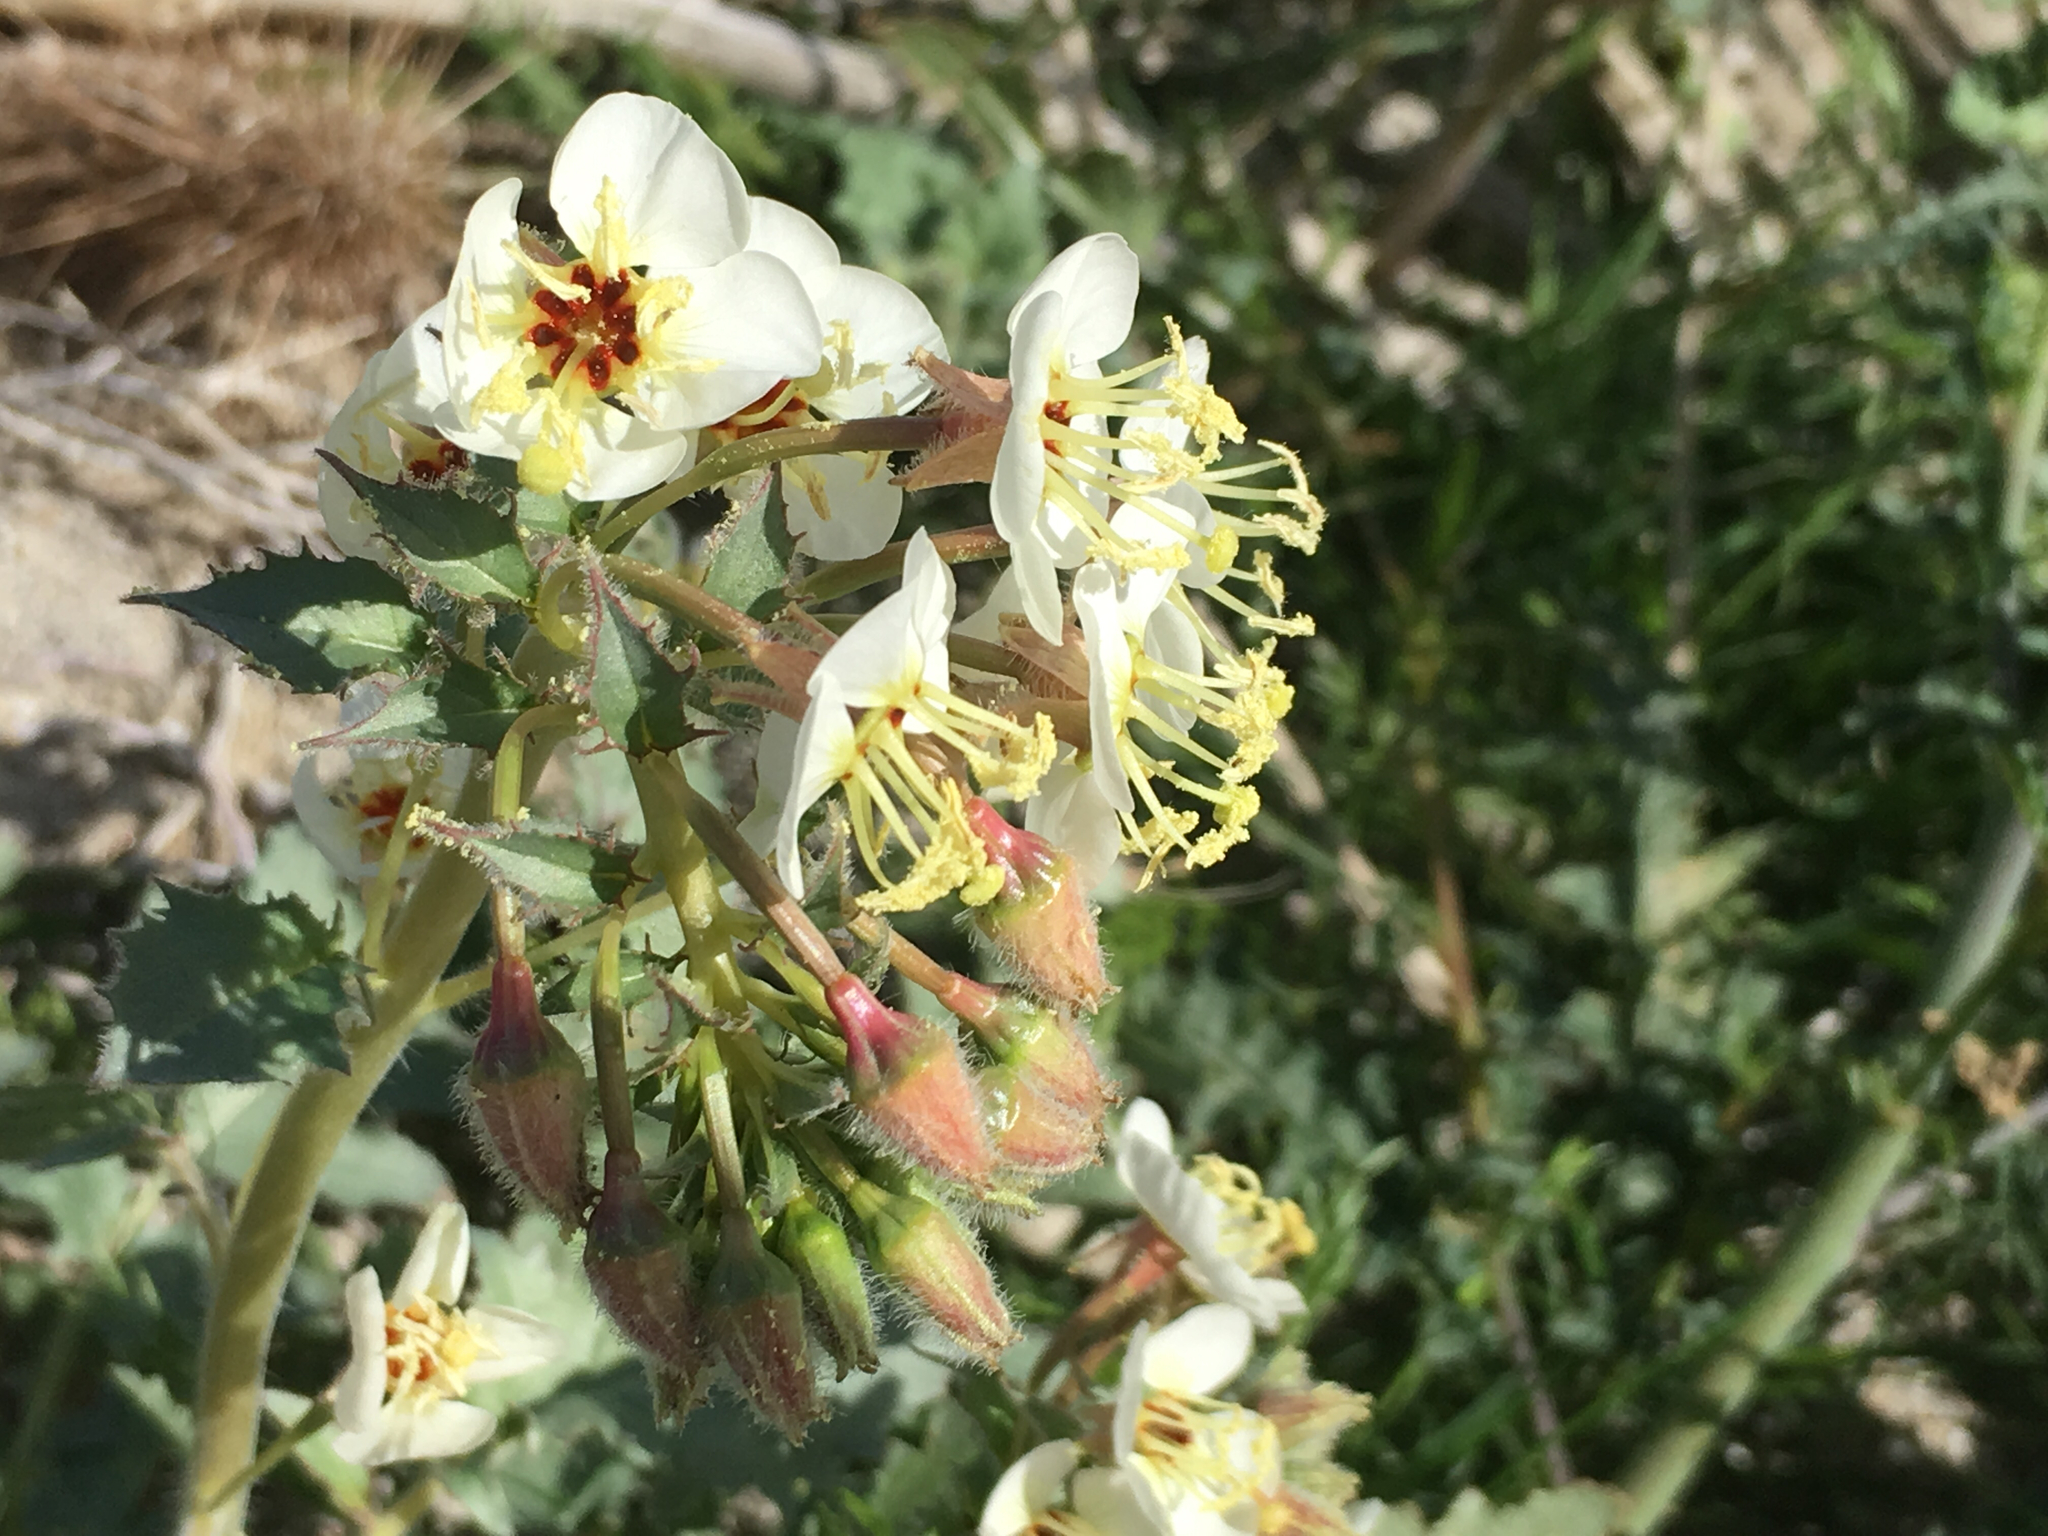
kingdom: Plantae
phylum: Tracheophyta
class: Magnoliopsida
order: Myrtales
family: Onagraceae
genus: Chylismia
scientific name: Chylismia claviformis
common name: Browneyes
